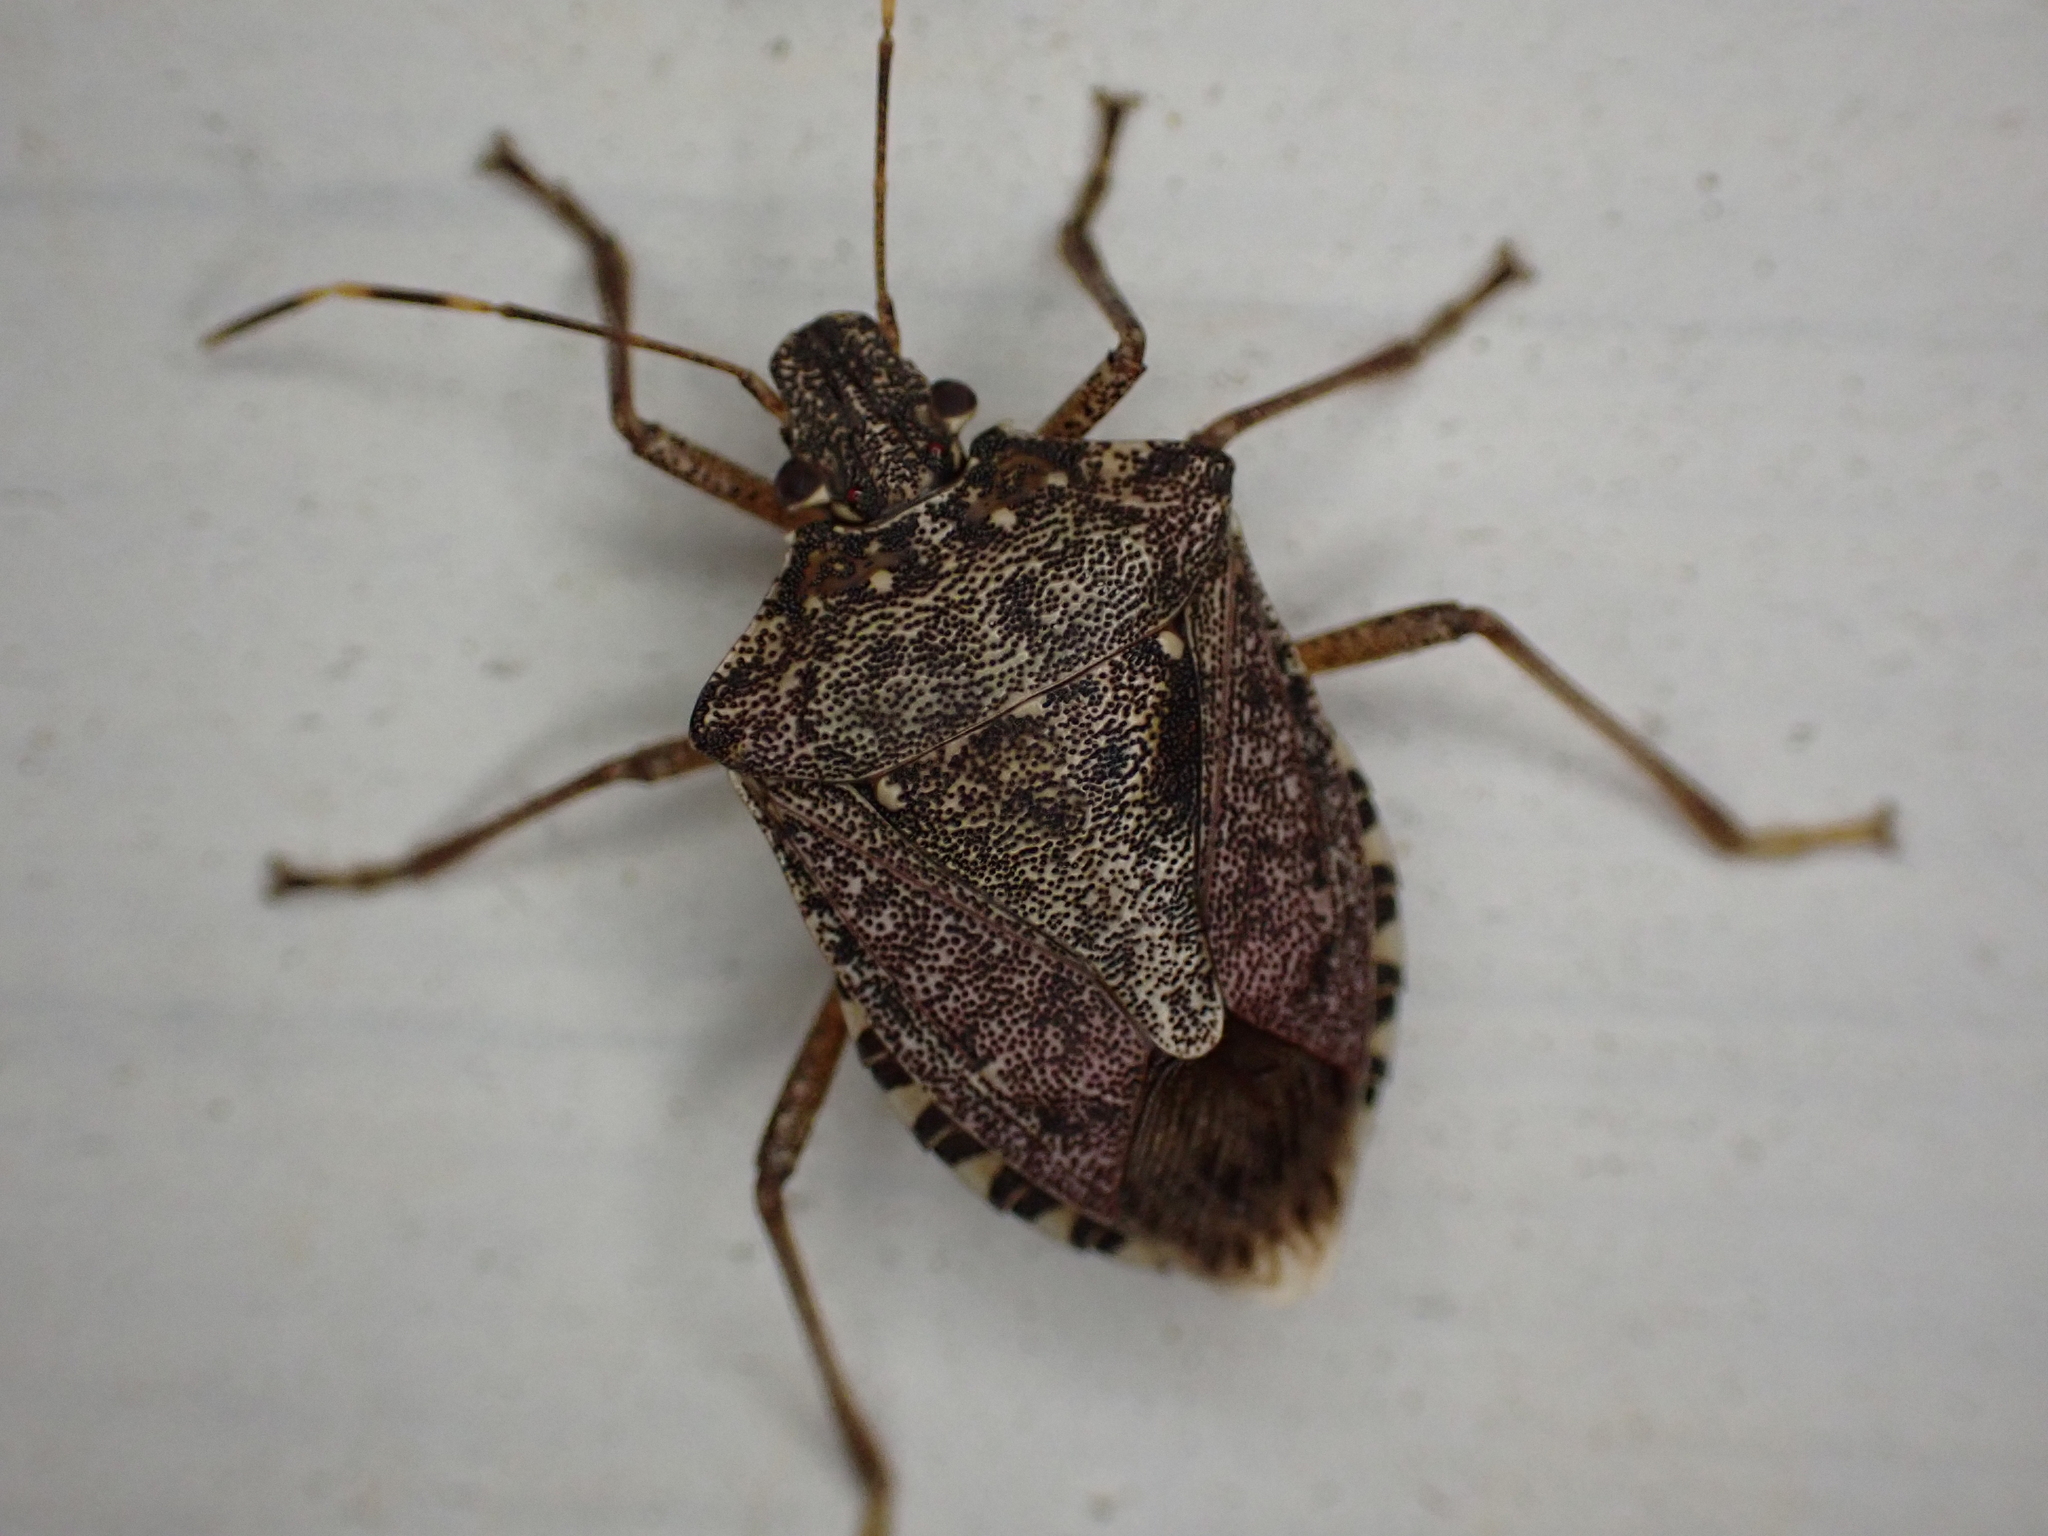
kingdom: Animalia
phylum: Arthropoda
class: Insecta
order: Hemiptera
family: Pentatomidae
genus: Halyomorpha
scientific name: Halyomorpha halys
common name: Brown marmorated stink bug
